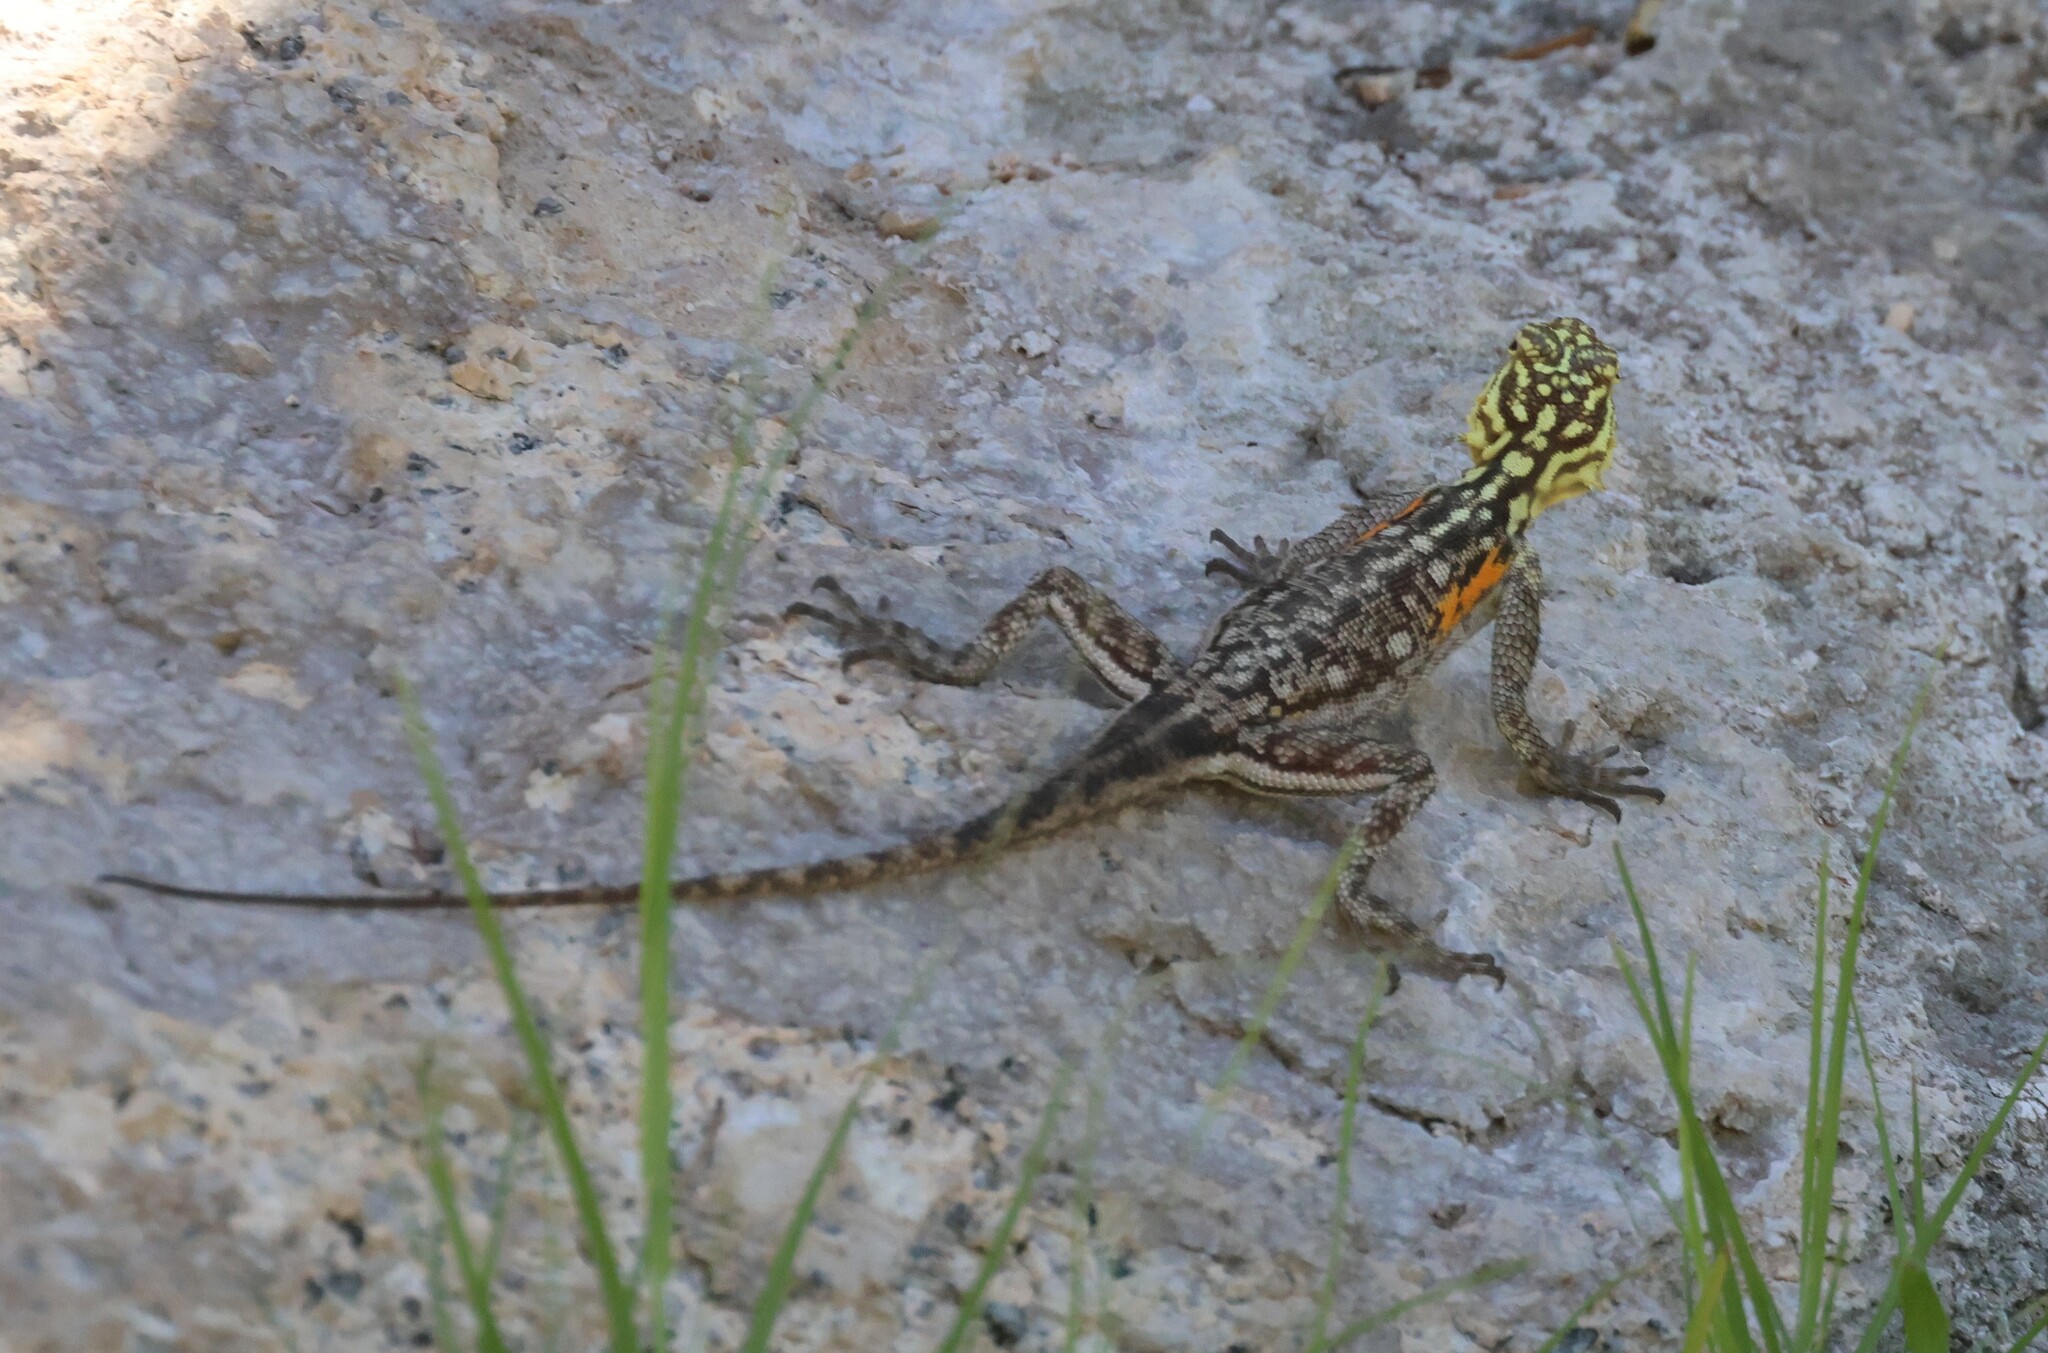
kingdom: Animalia
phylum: Chordata
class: Squamata
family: Agamidae
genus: Agama
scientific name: Agama planiceps
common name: Namib rock agama
